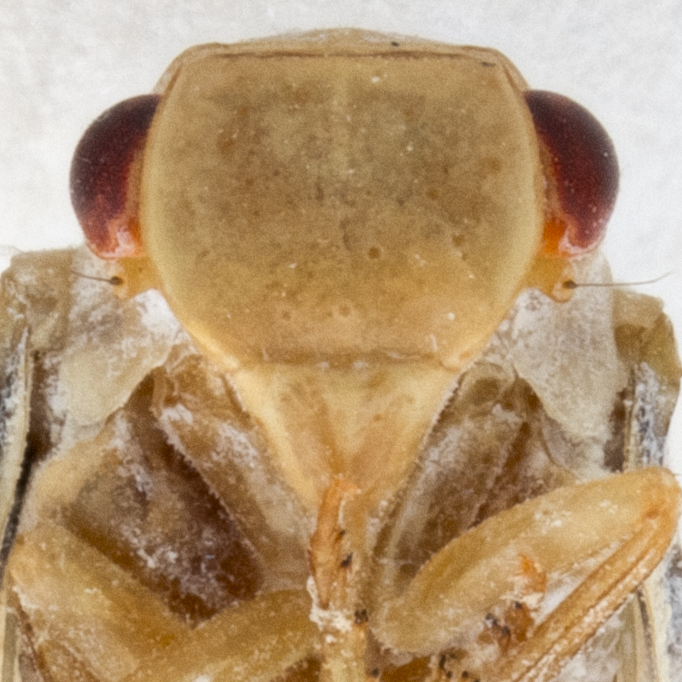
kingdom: Animalia
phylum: Arthropoda
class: Insecta
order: Hemiptera
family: Flatidae
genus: Antillormenis
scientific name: Antillormenis martinicensis
